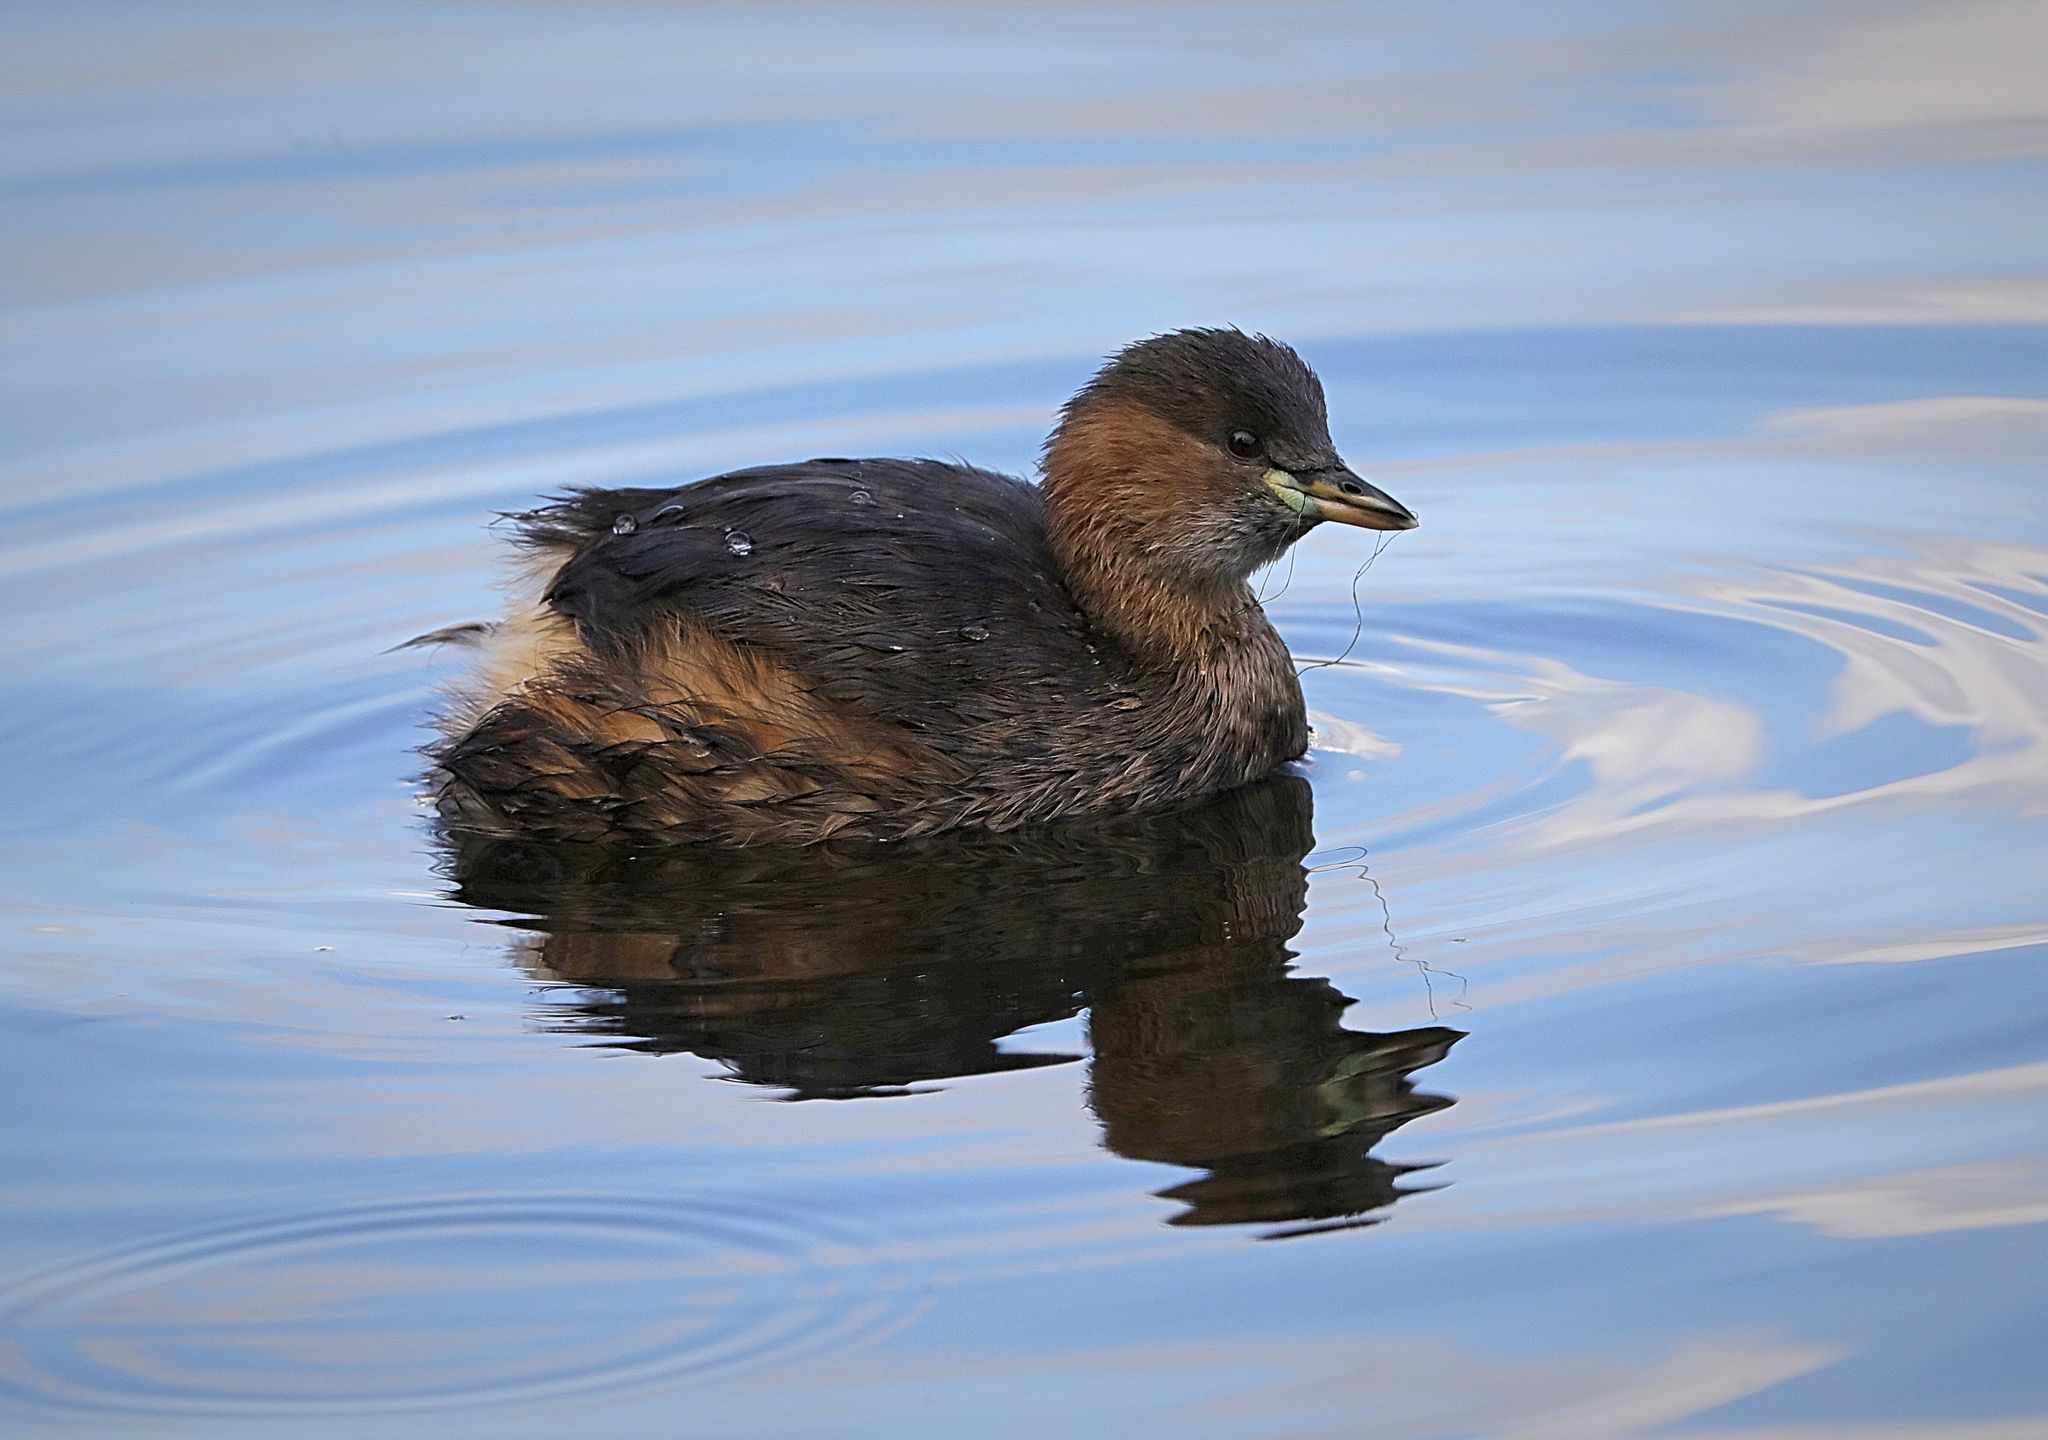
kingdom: Animalia
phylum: Chordata
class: Aves
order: Podicipediformes
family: Podicipedidae
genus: Tachybaptus
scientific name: Tachybaptus ruficollis
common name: Little grebe
